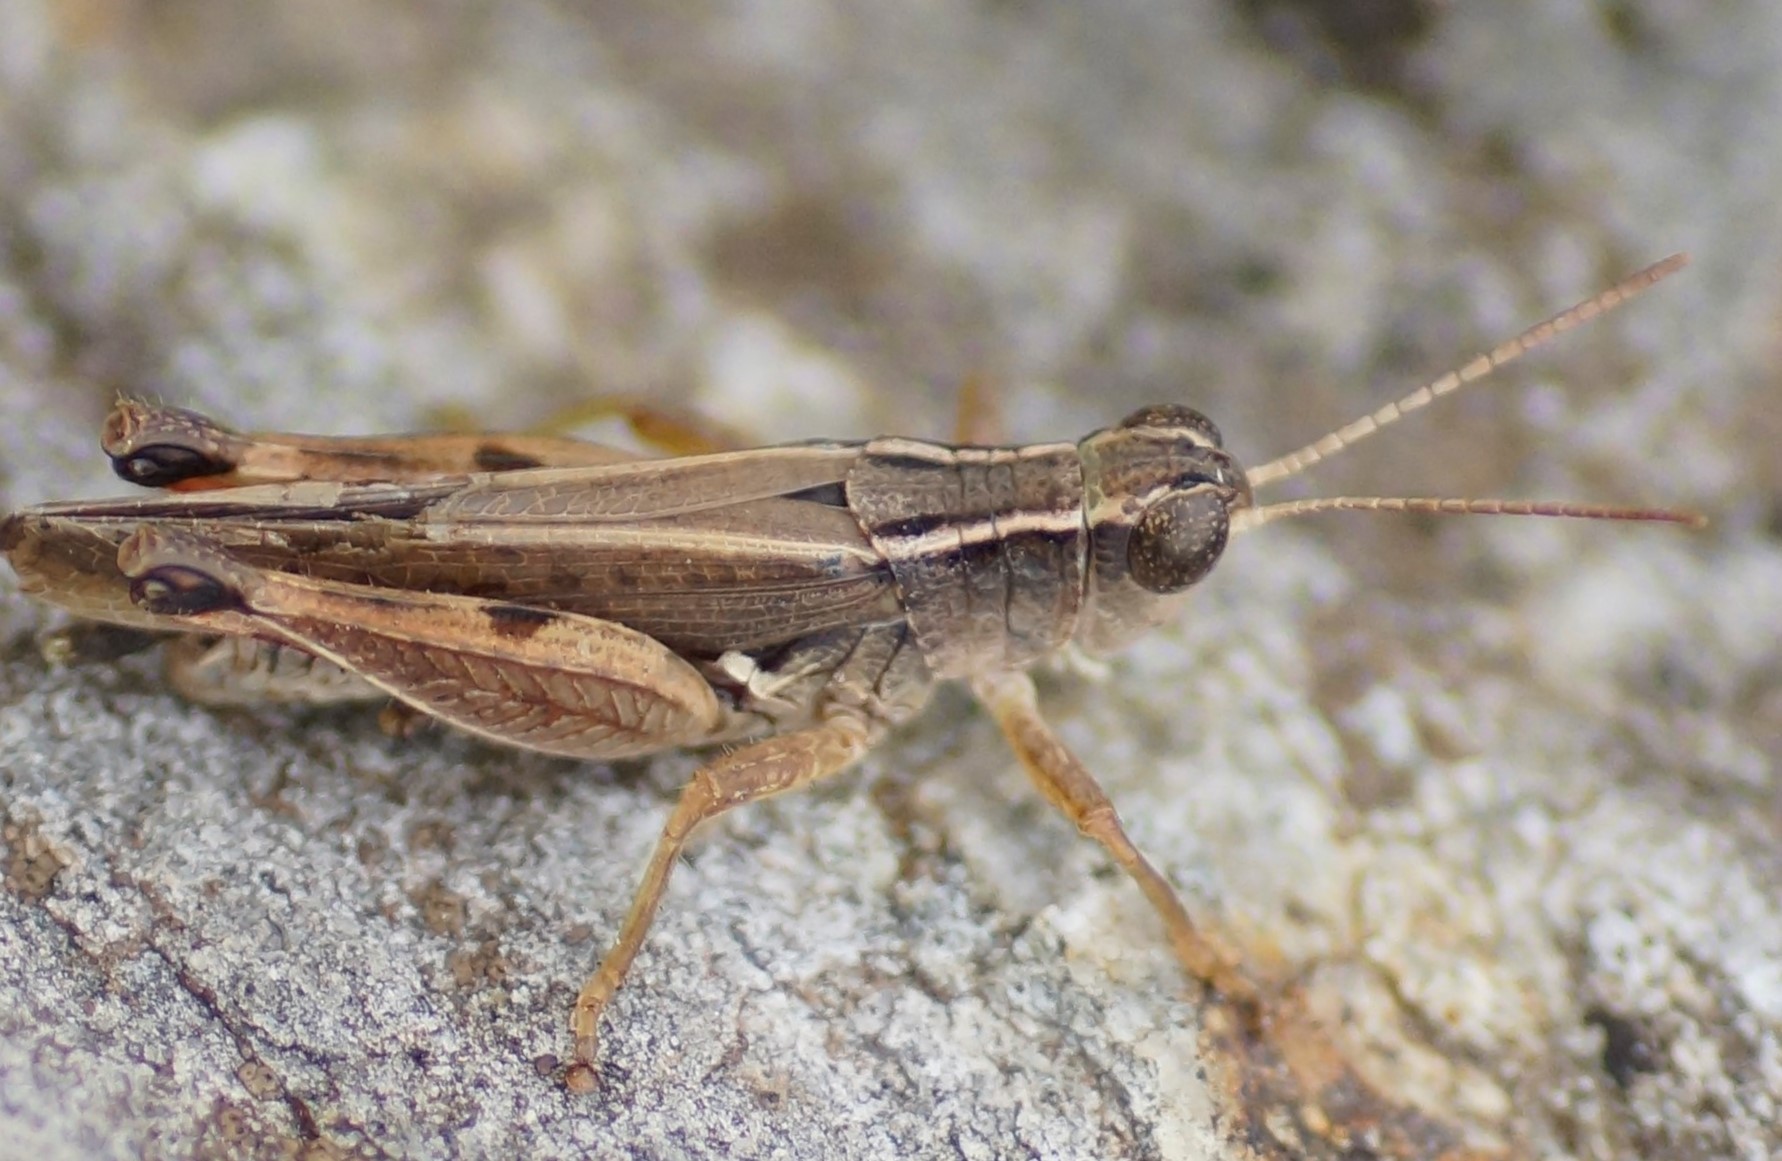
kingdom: Animalia
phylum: Arthropoda
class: Insecta
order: Orthoptera
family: Acrididae
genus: Phaulacridium
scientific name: Phaulacridium vittatum
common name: Wingless grasshopper
